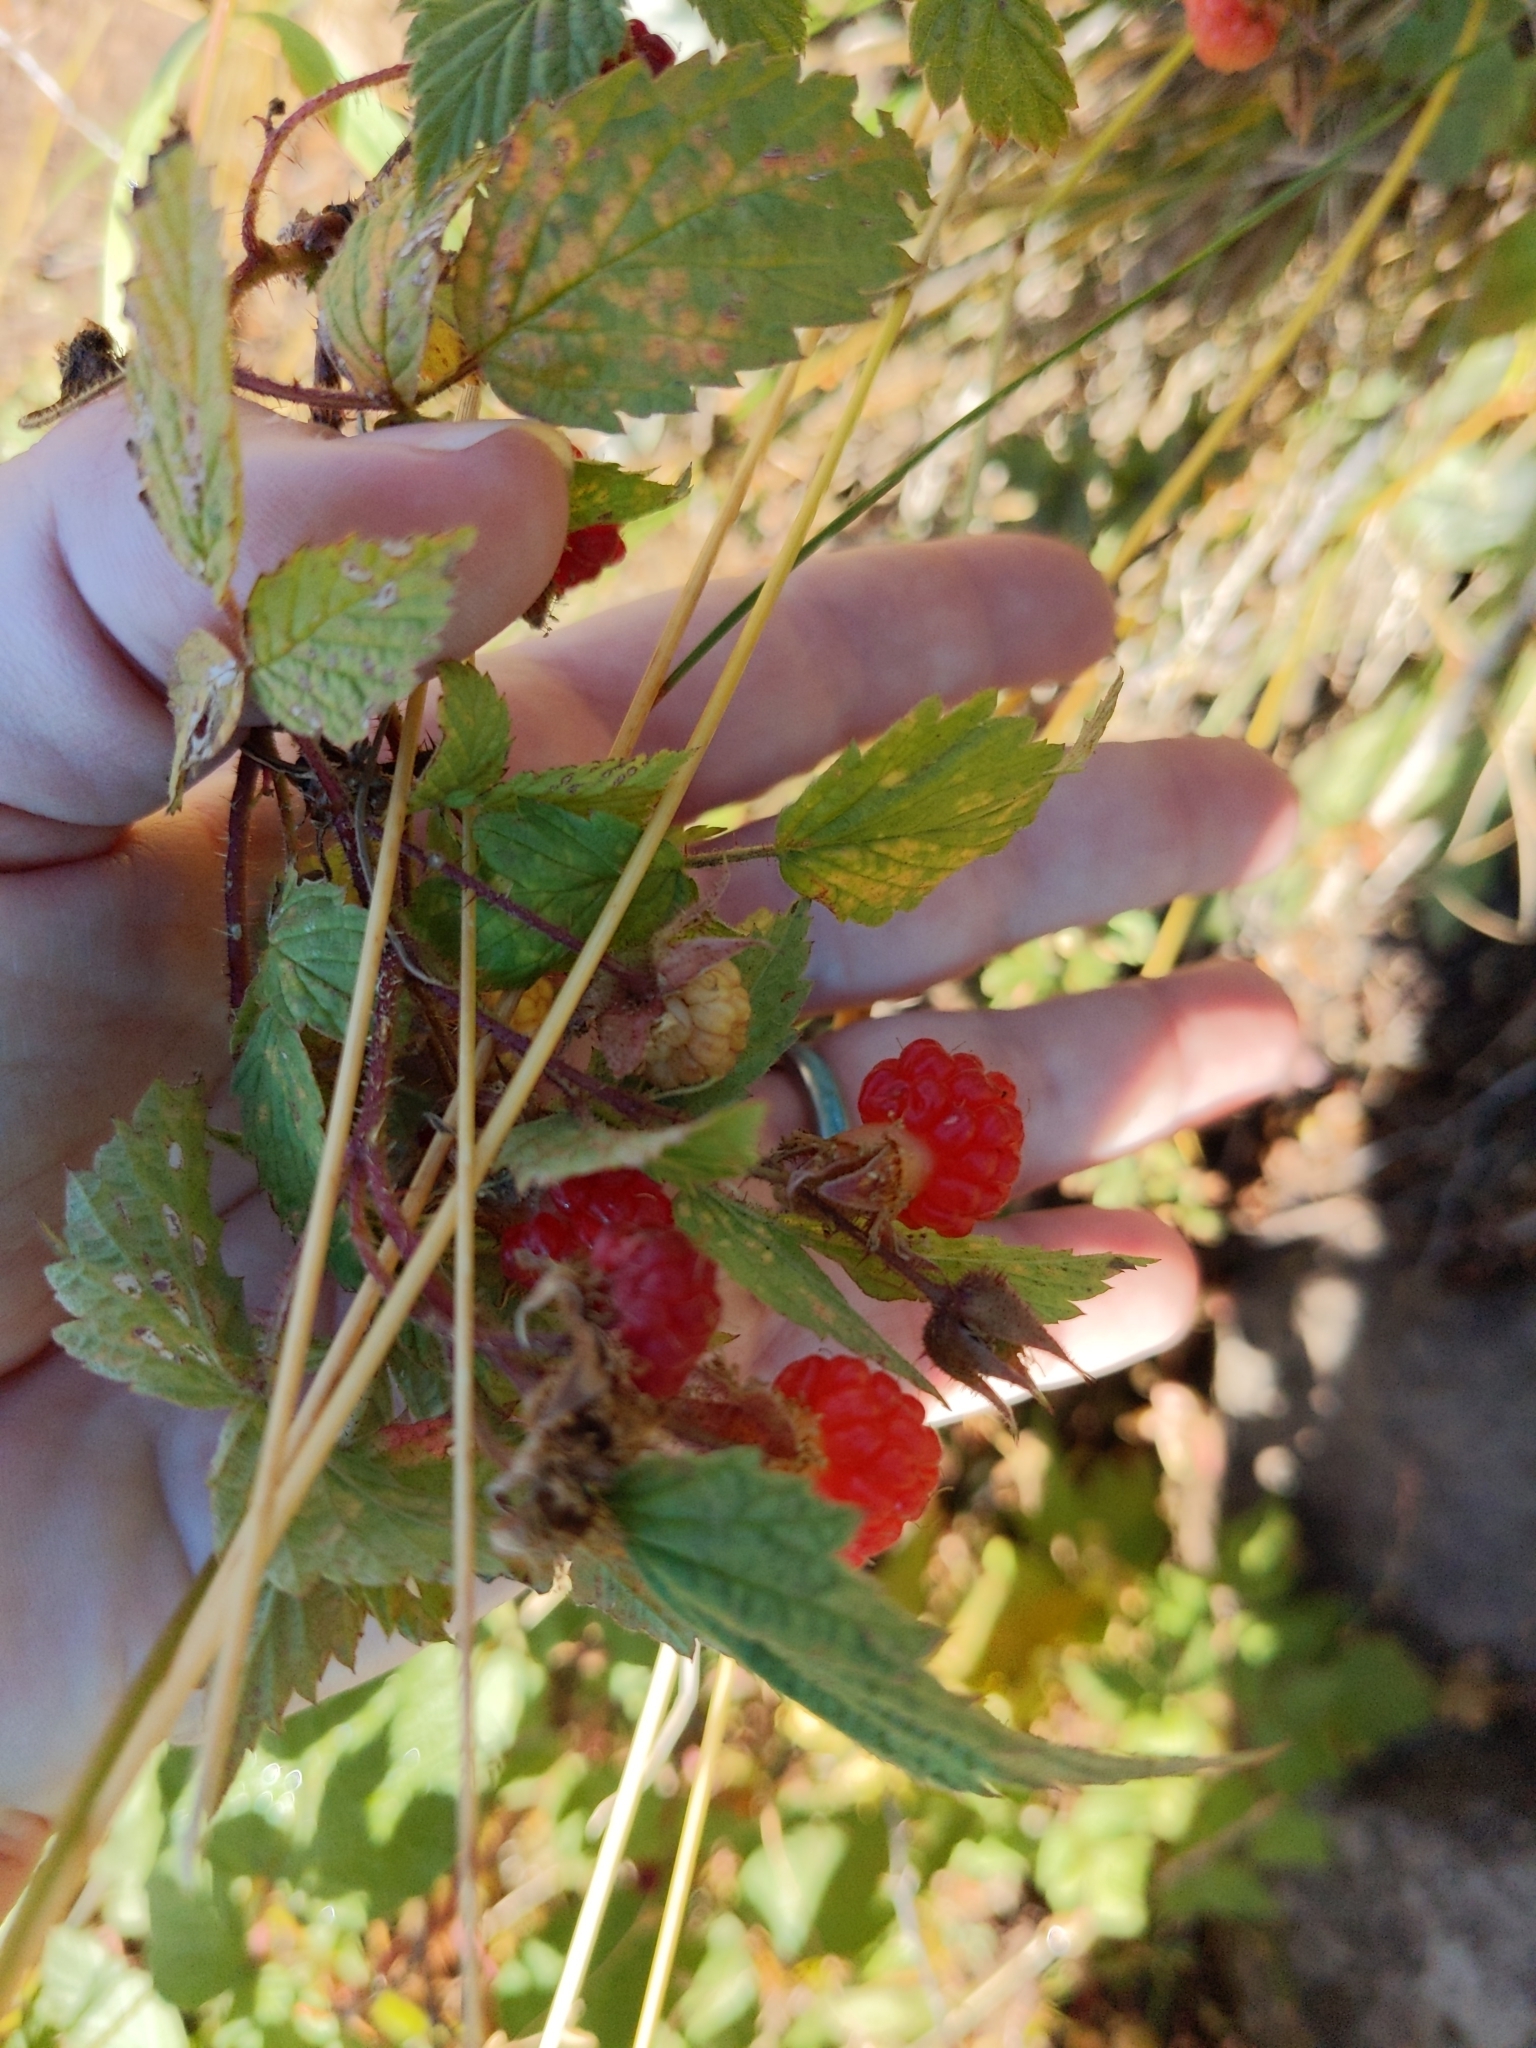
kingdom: Plantae
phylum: Tracheophyta
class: Magnoliopsida
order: Rosales
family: Rosaceae
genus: Rubus
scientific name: Rubus idaeus
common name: Raspberry
